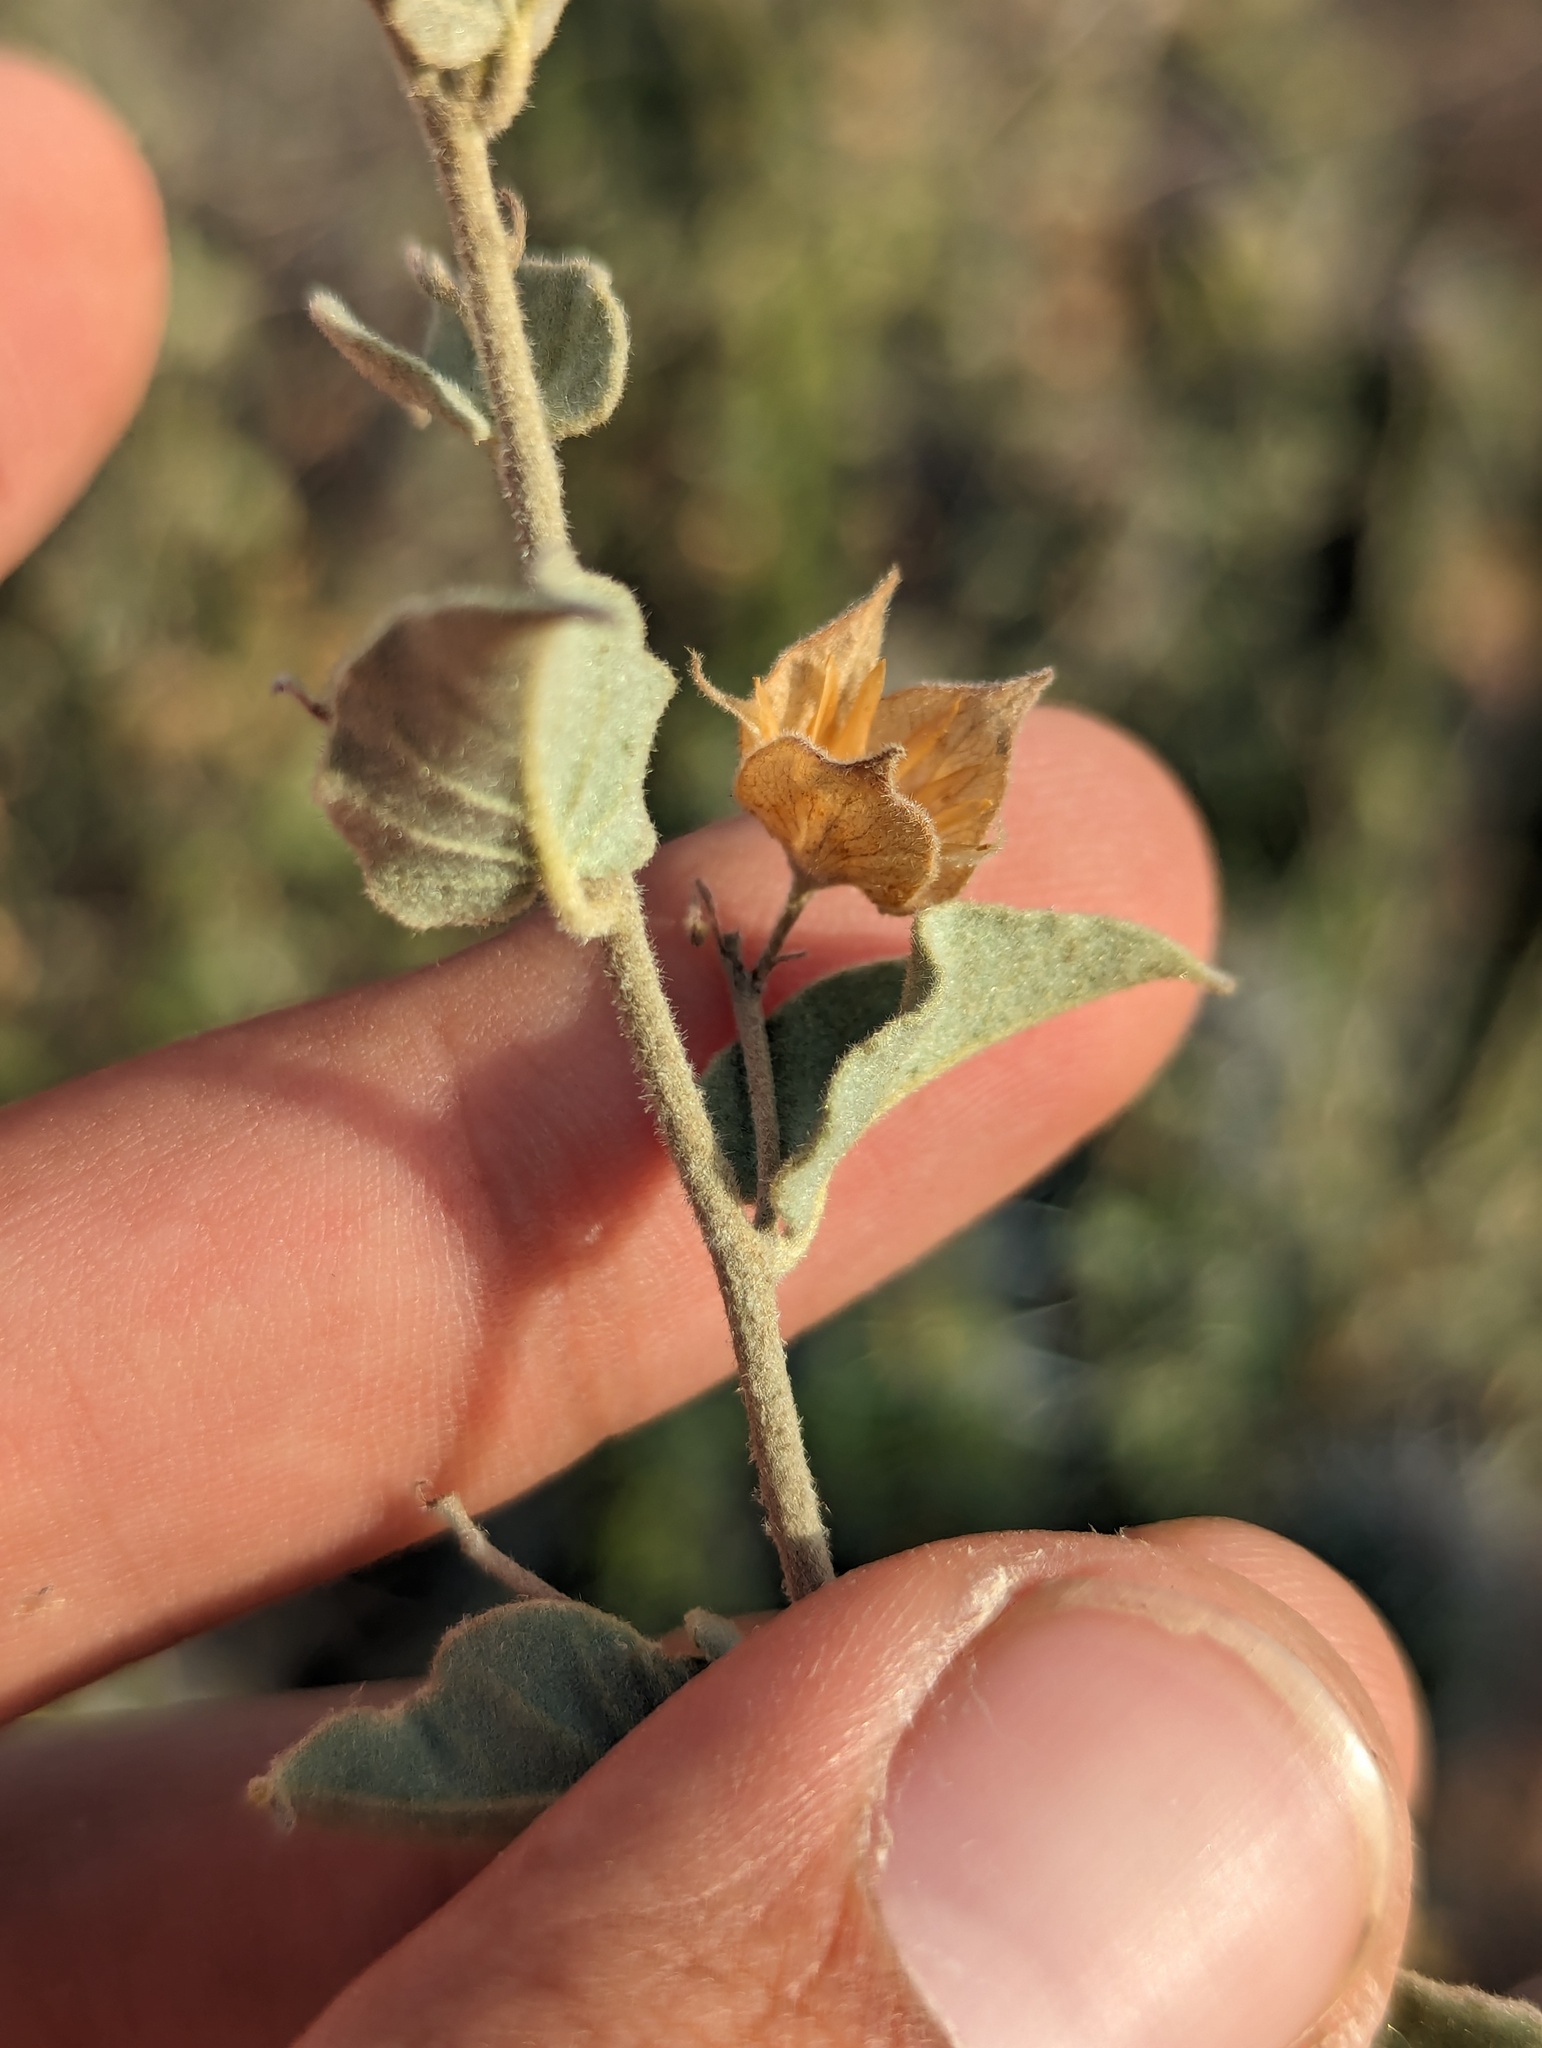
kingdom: Plantae
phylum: Tracheophyta
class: Magnoliopsida
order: Solanales
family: Convolvulaceae
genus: Jacquemontia
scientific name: Jacquemontia abutiloides
